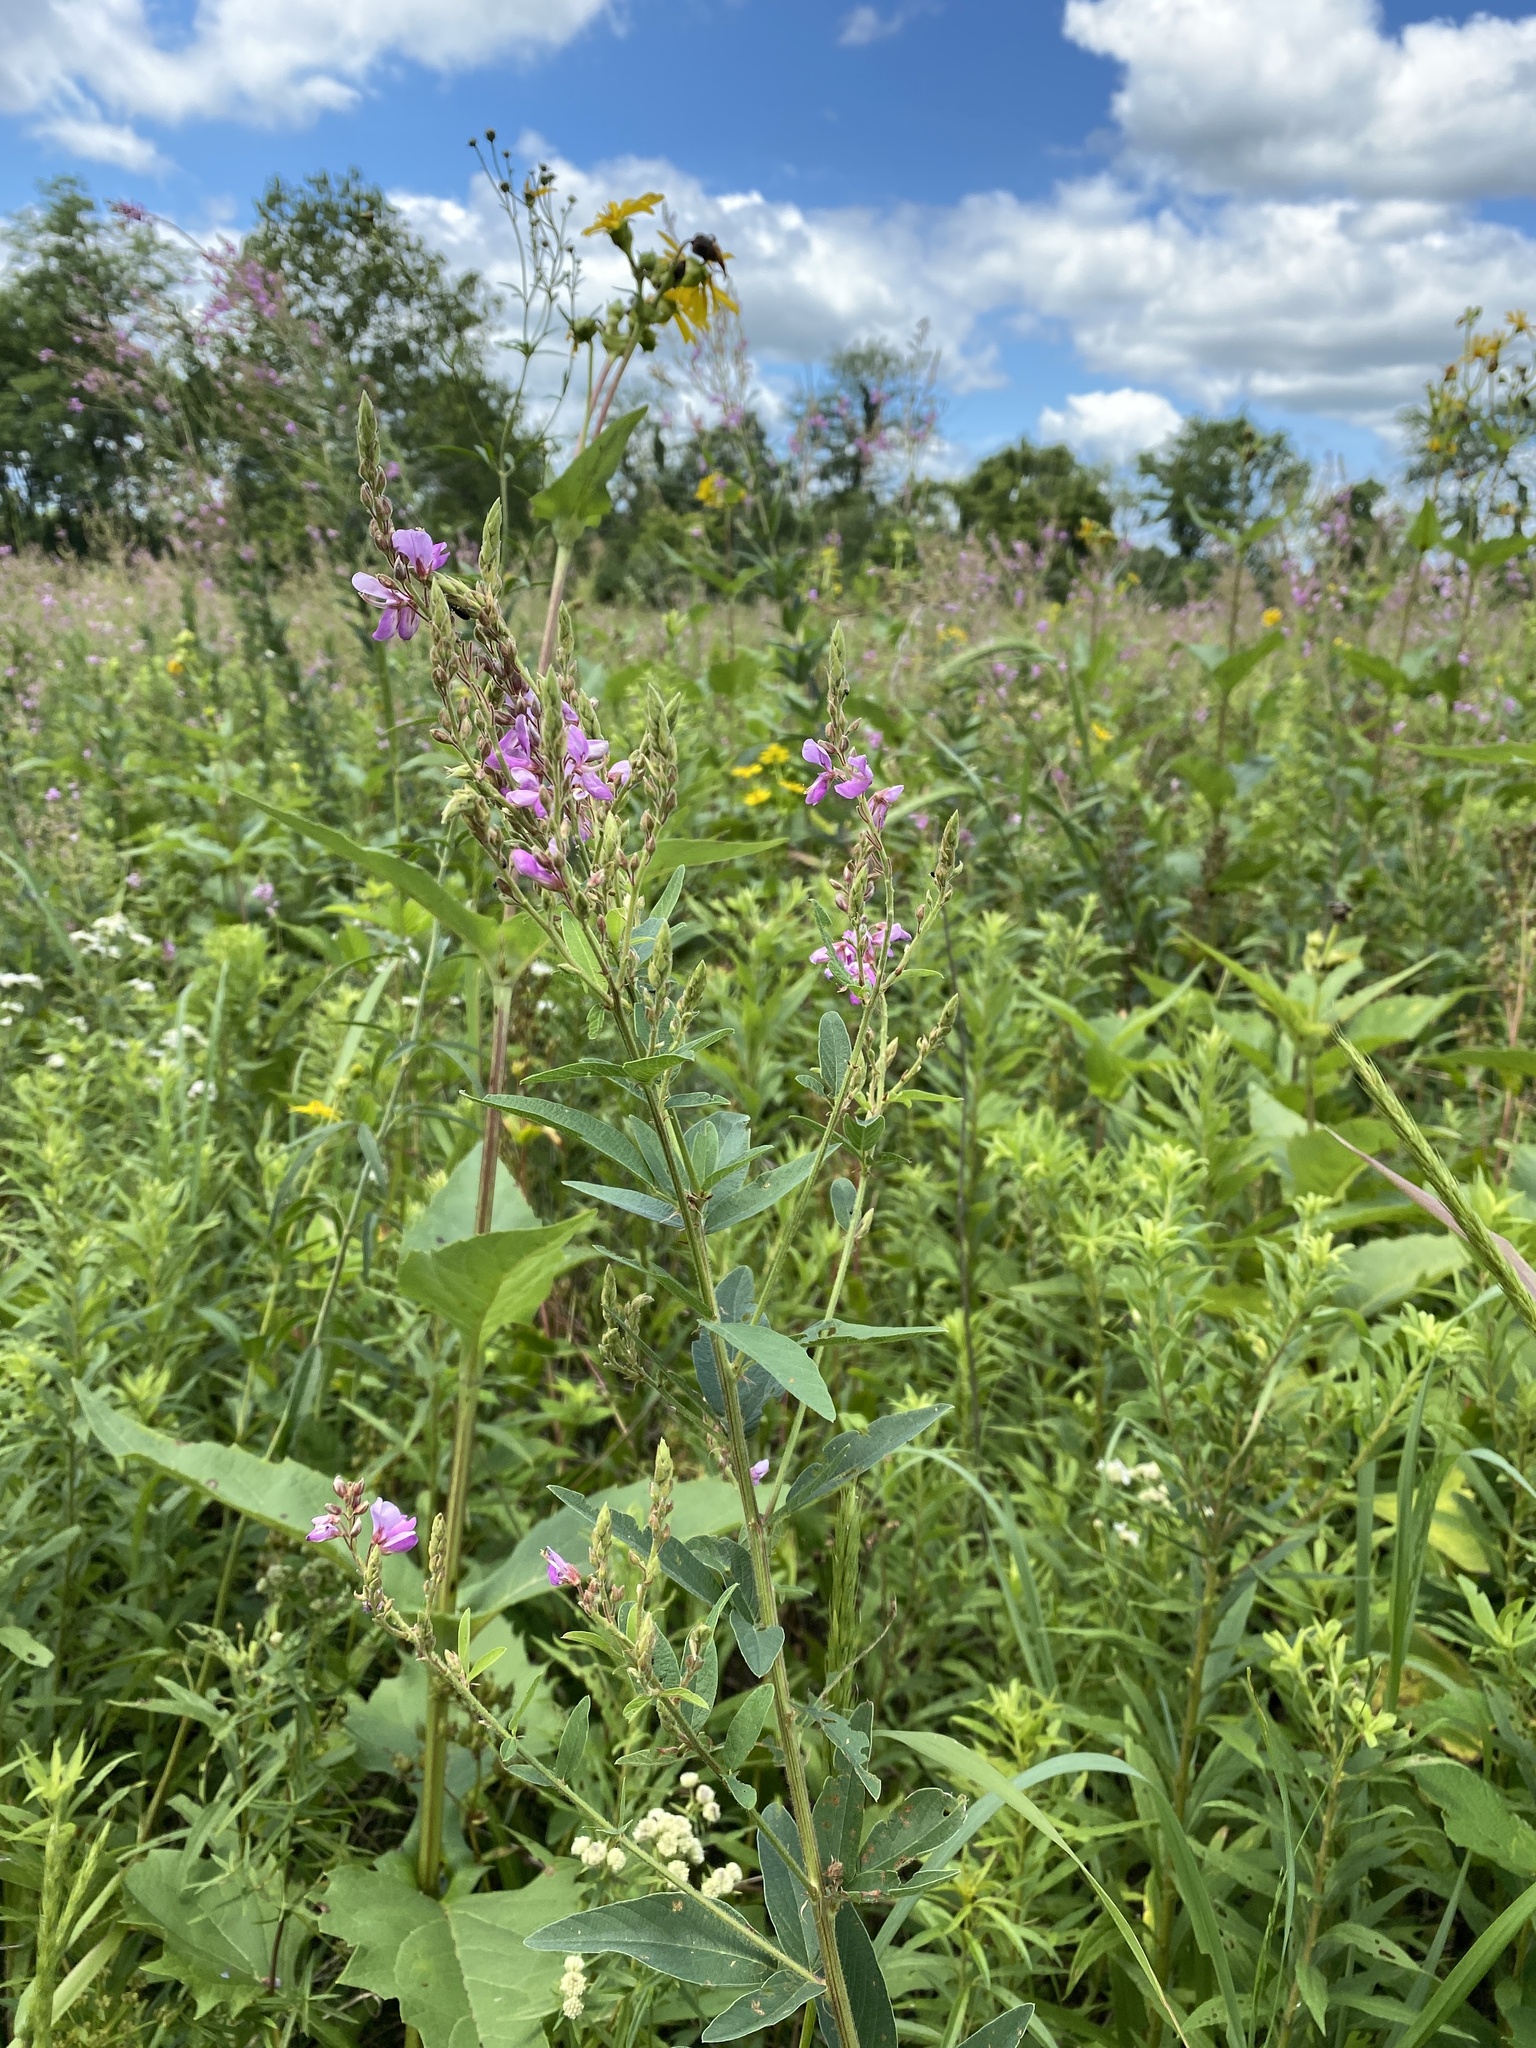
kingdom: Plantae
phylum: Tracheophyta
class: Magnoliopsida
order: Fabales
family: Fabaceae
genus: Desmodium
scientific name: Desmodium canadense
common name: Canada tick-trefoil
